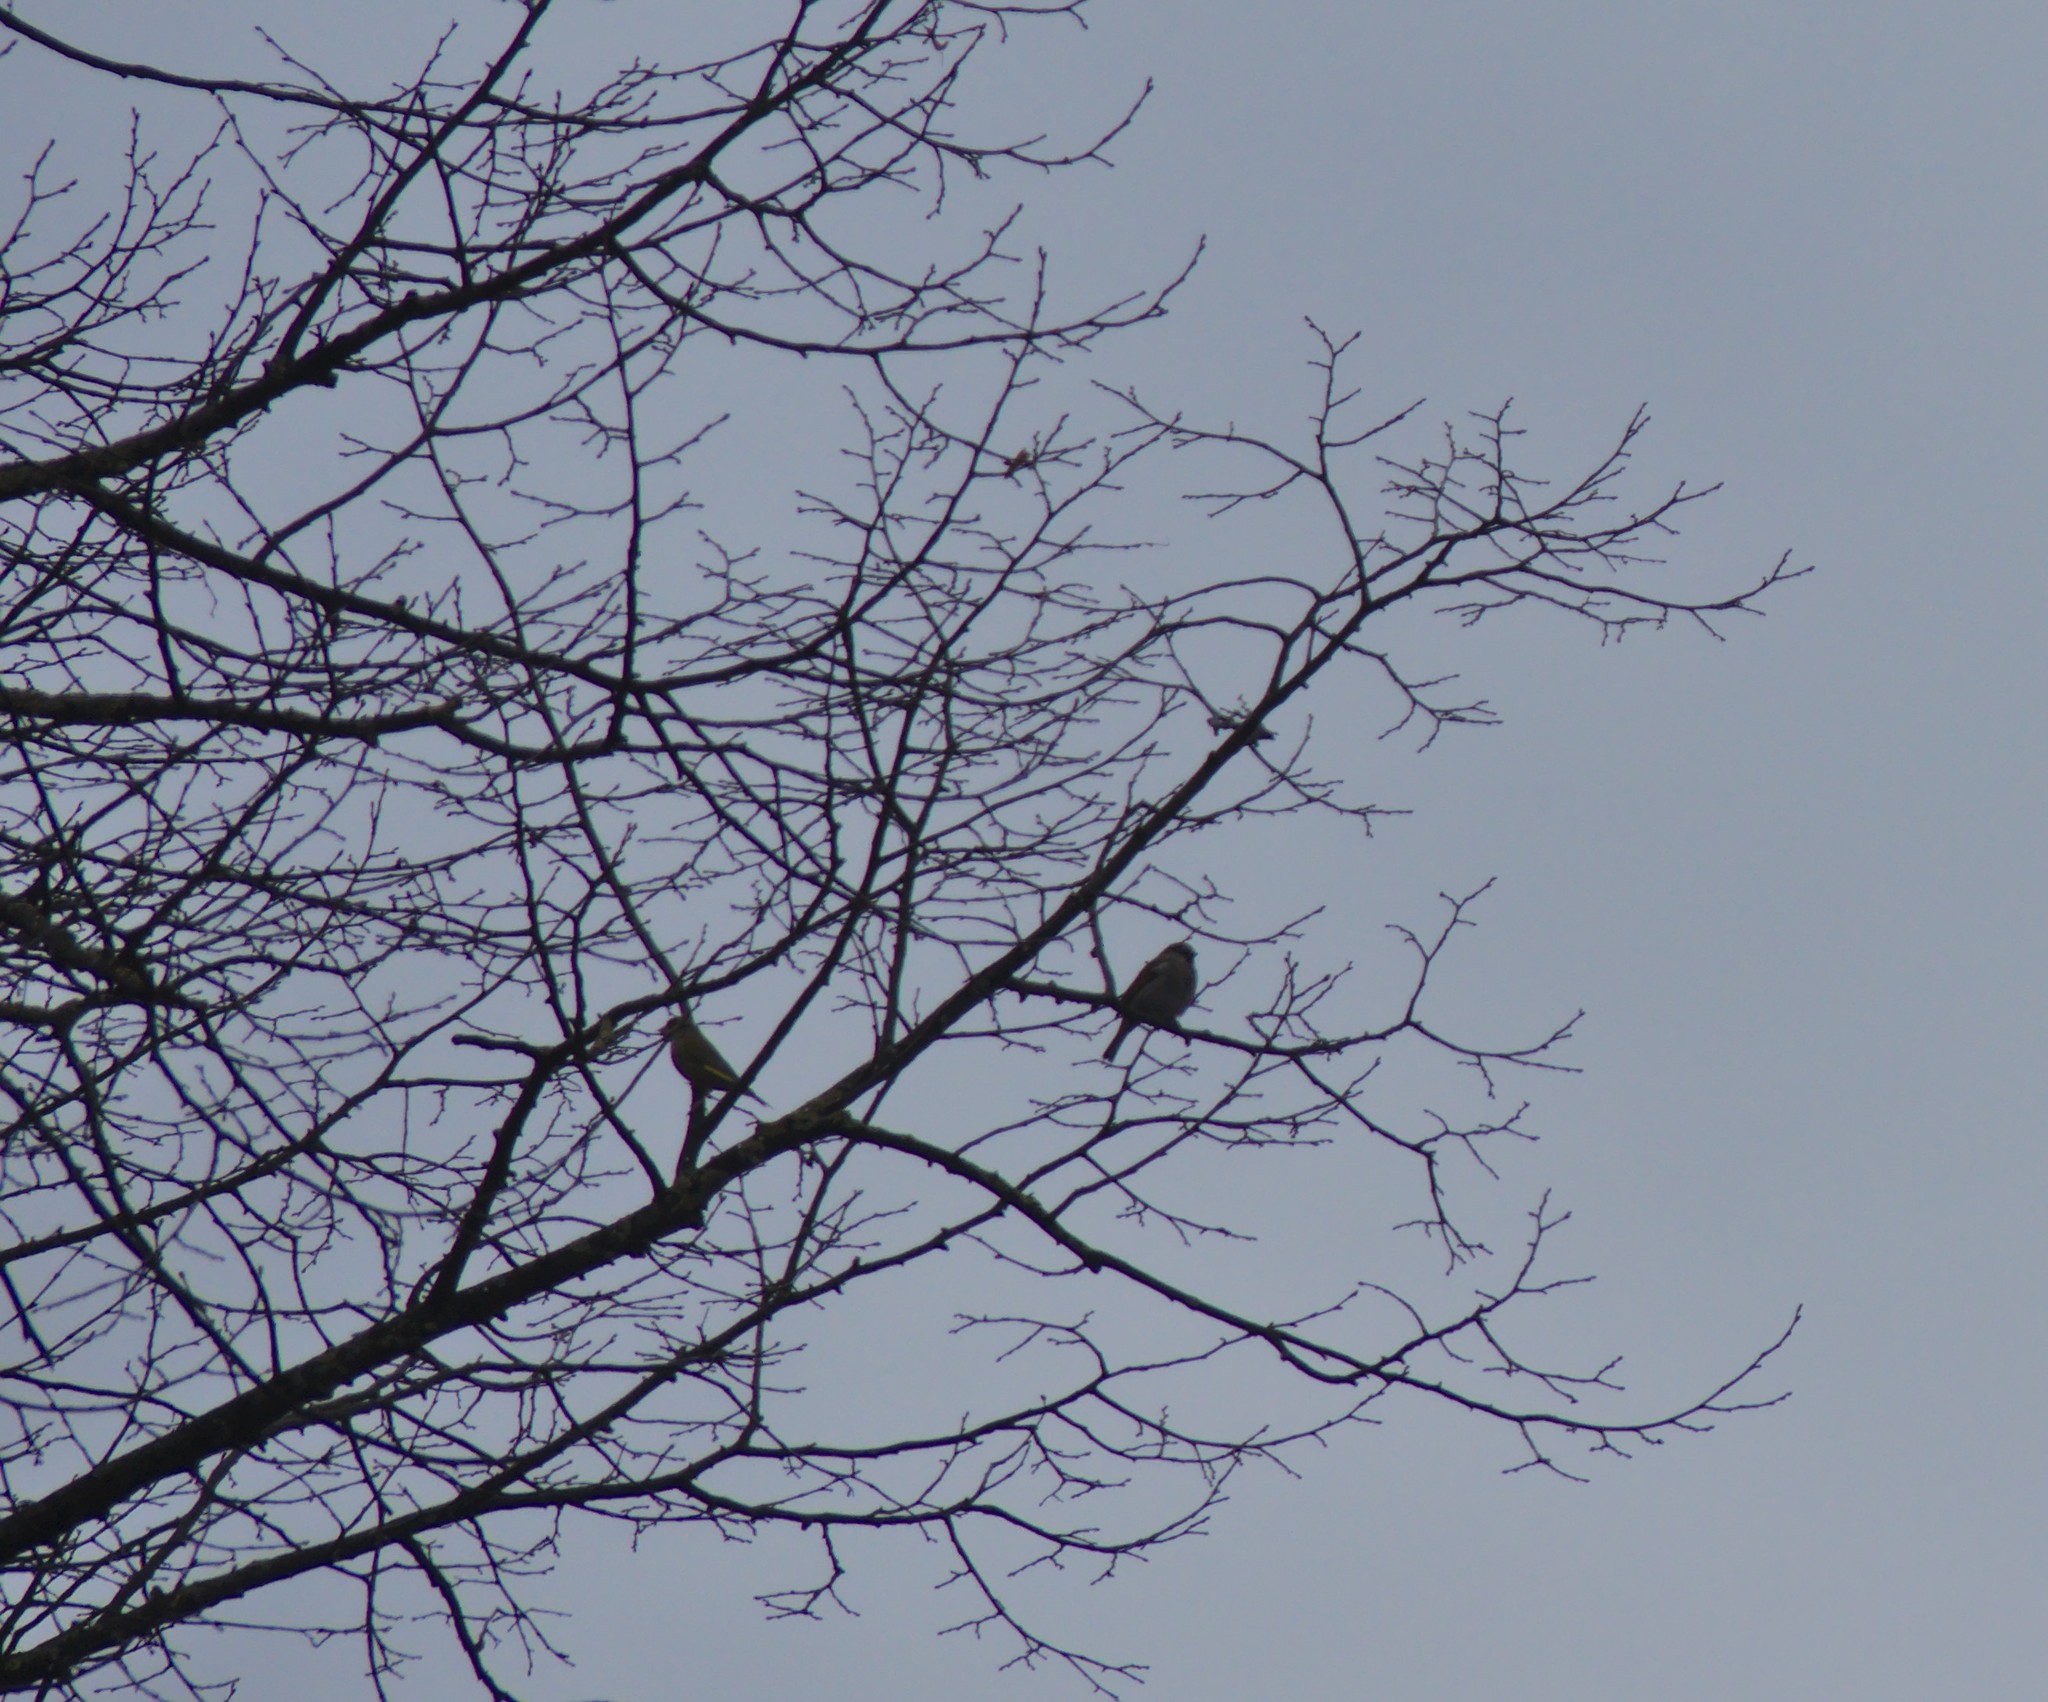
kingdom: Plantae
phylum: Tracheophyta
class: Liliopsida
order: Poales
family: Poaceae
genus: Chloris
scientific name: Chloris chloris
